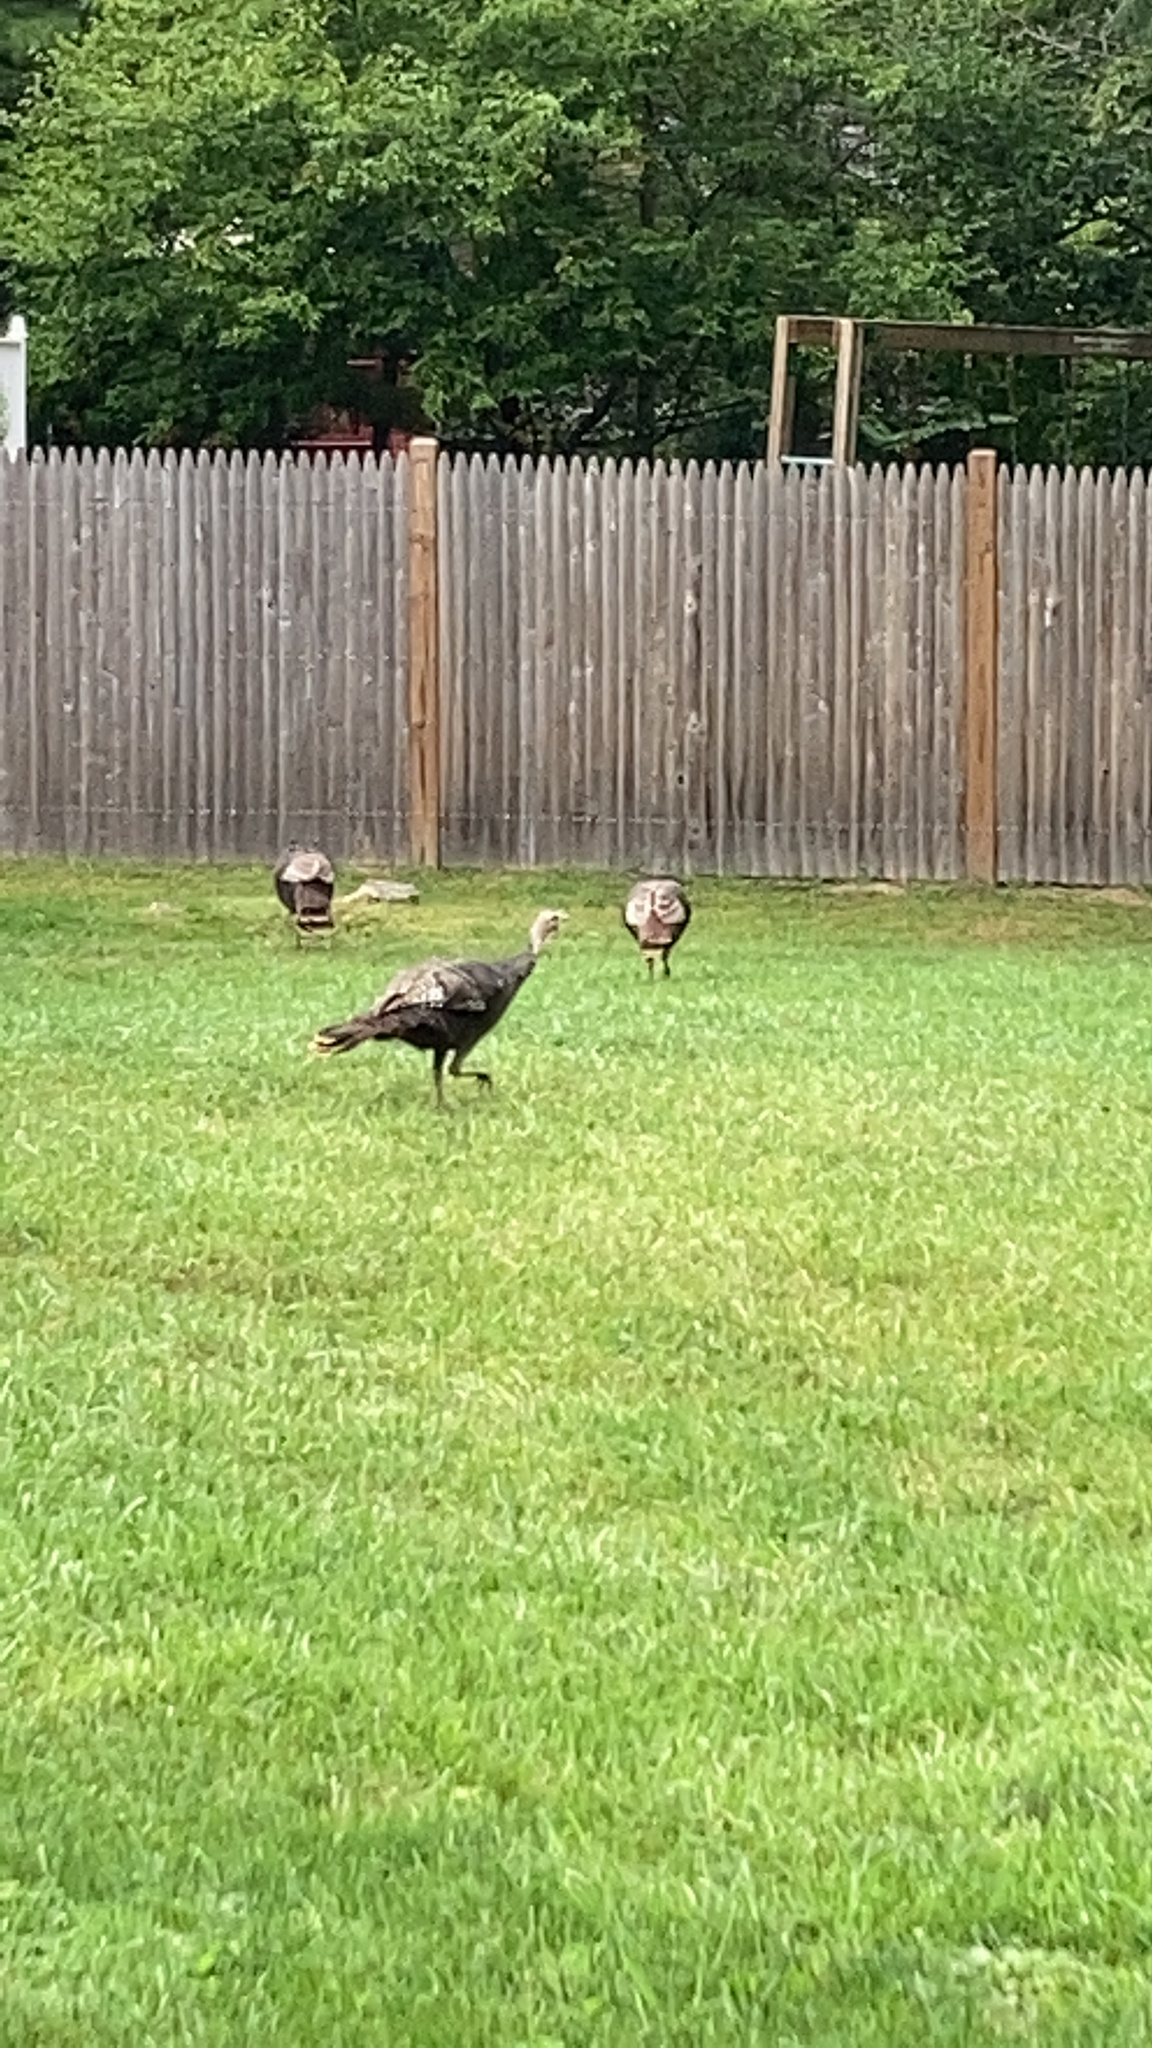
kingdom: Animalia
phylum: Chordata
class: Aves
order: Galliformes
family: Phasianidae
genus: Meleagris
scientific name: Meleagris gallopavo
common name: Wild turkey
